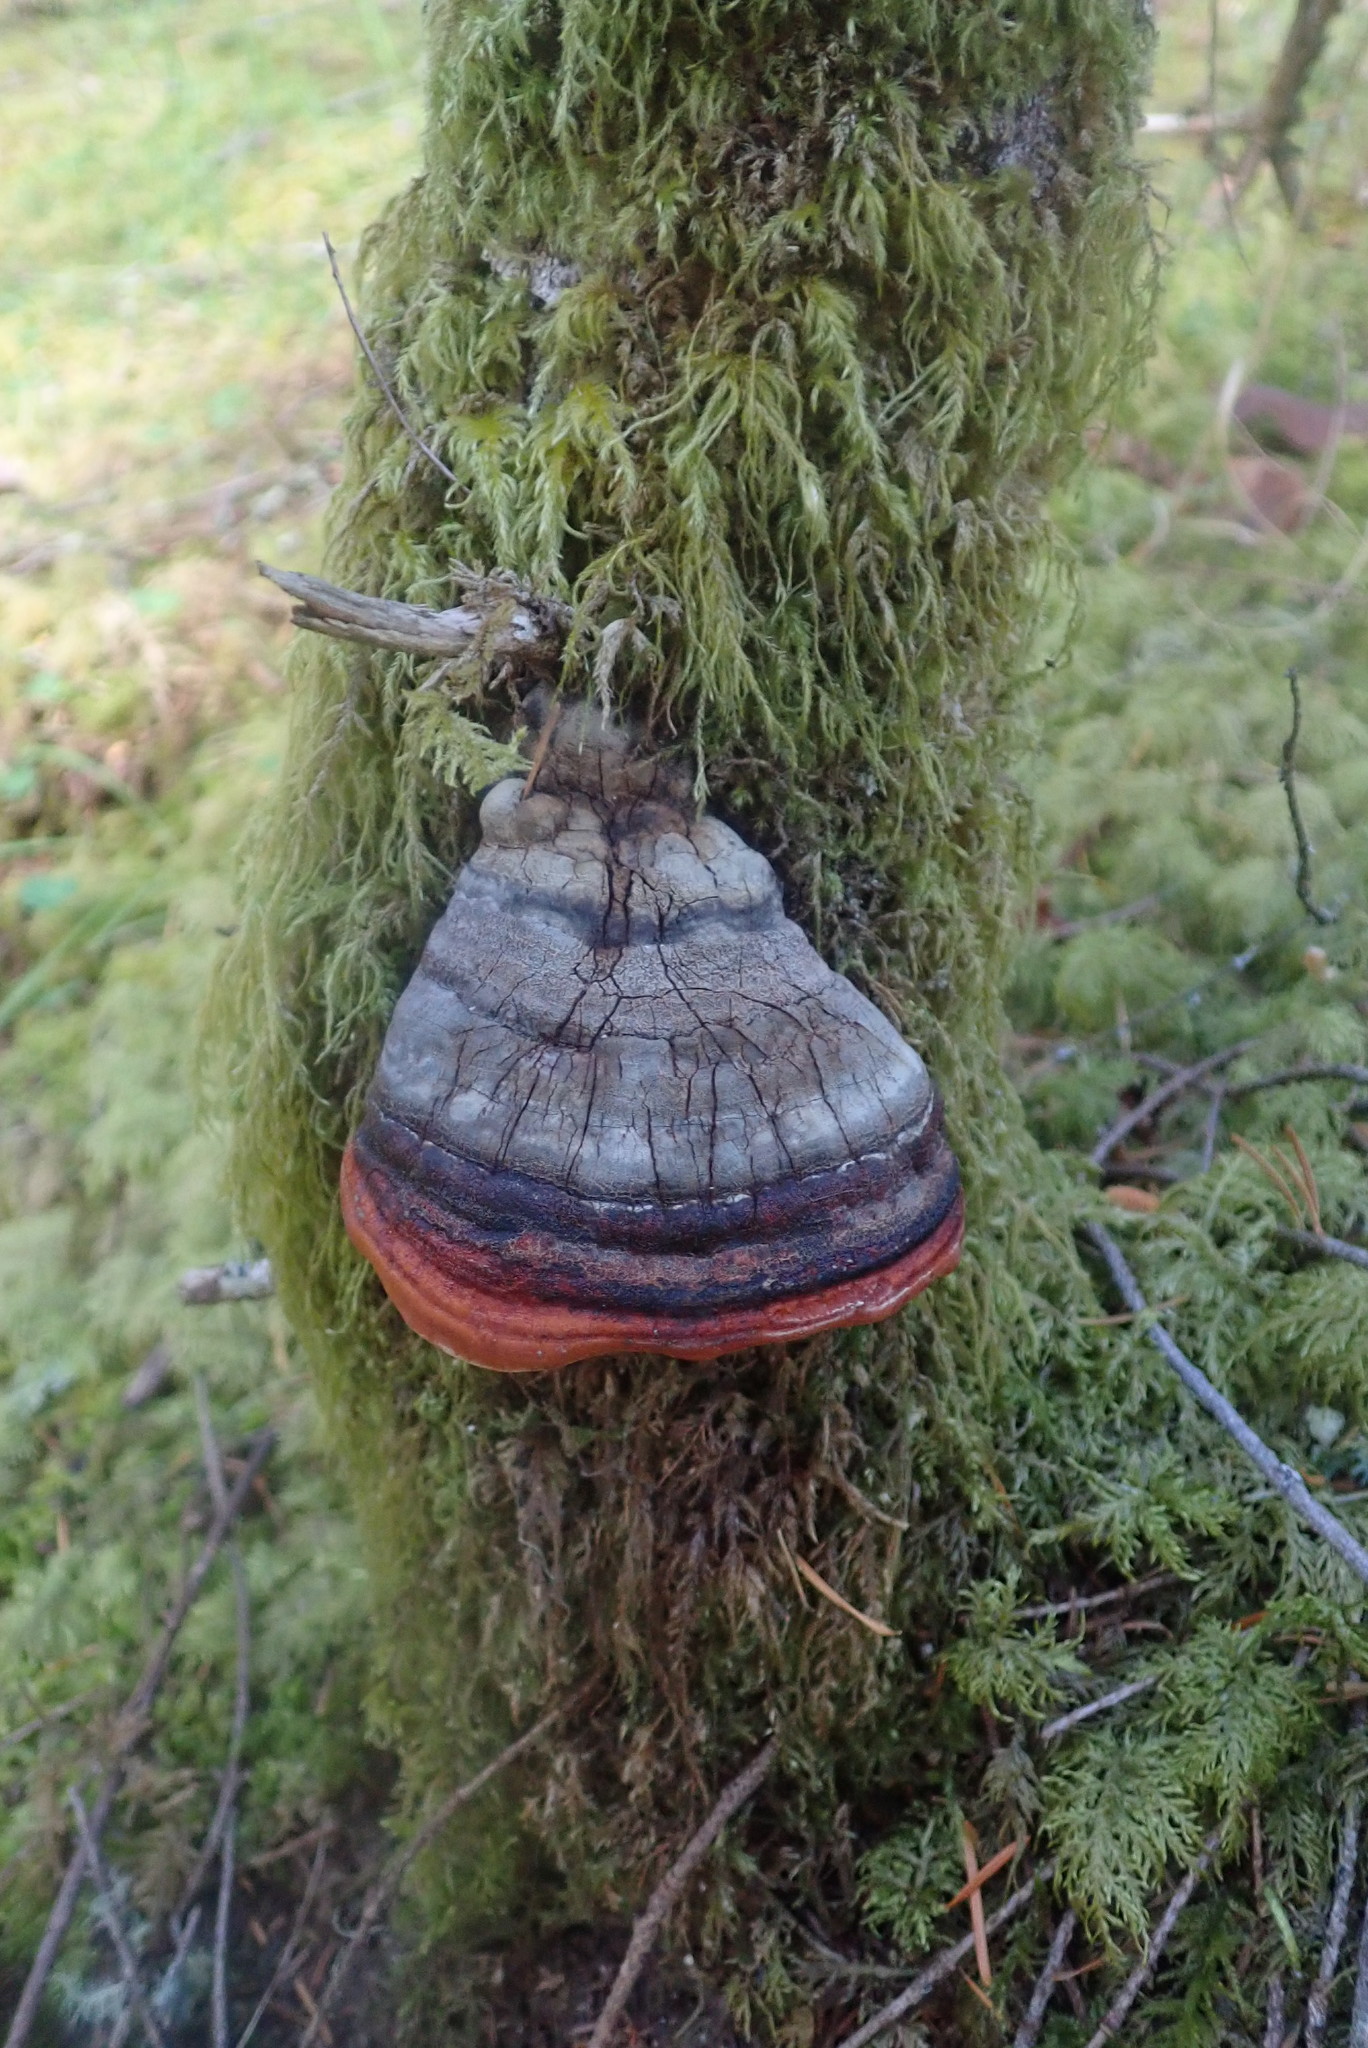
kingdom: Fungi
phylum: Basidiomycota
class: Agaricomycetes
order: Polyporales
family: Fomitopsidaceae
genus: Fomitopsis
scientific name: Fomitopsis mounceae
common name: Northern red belt
